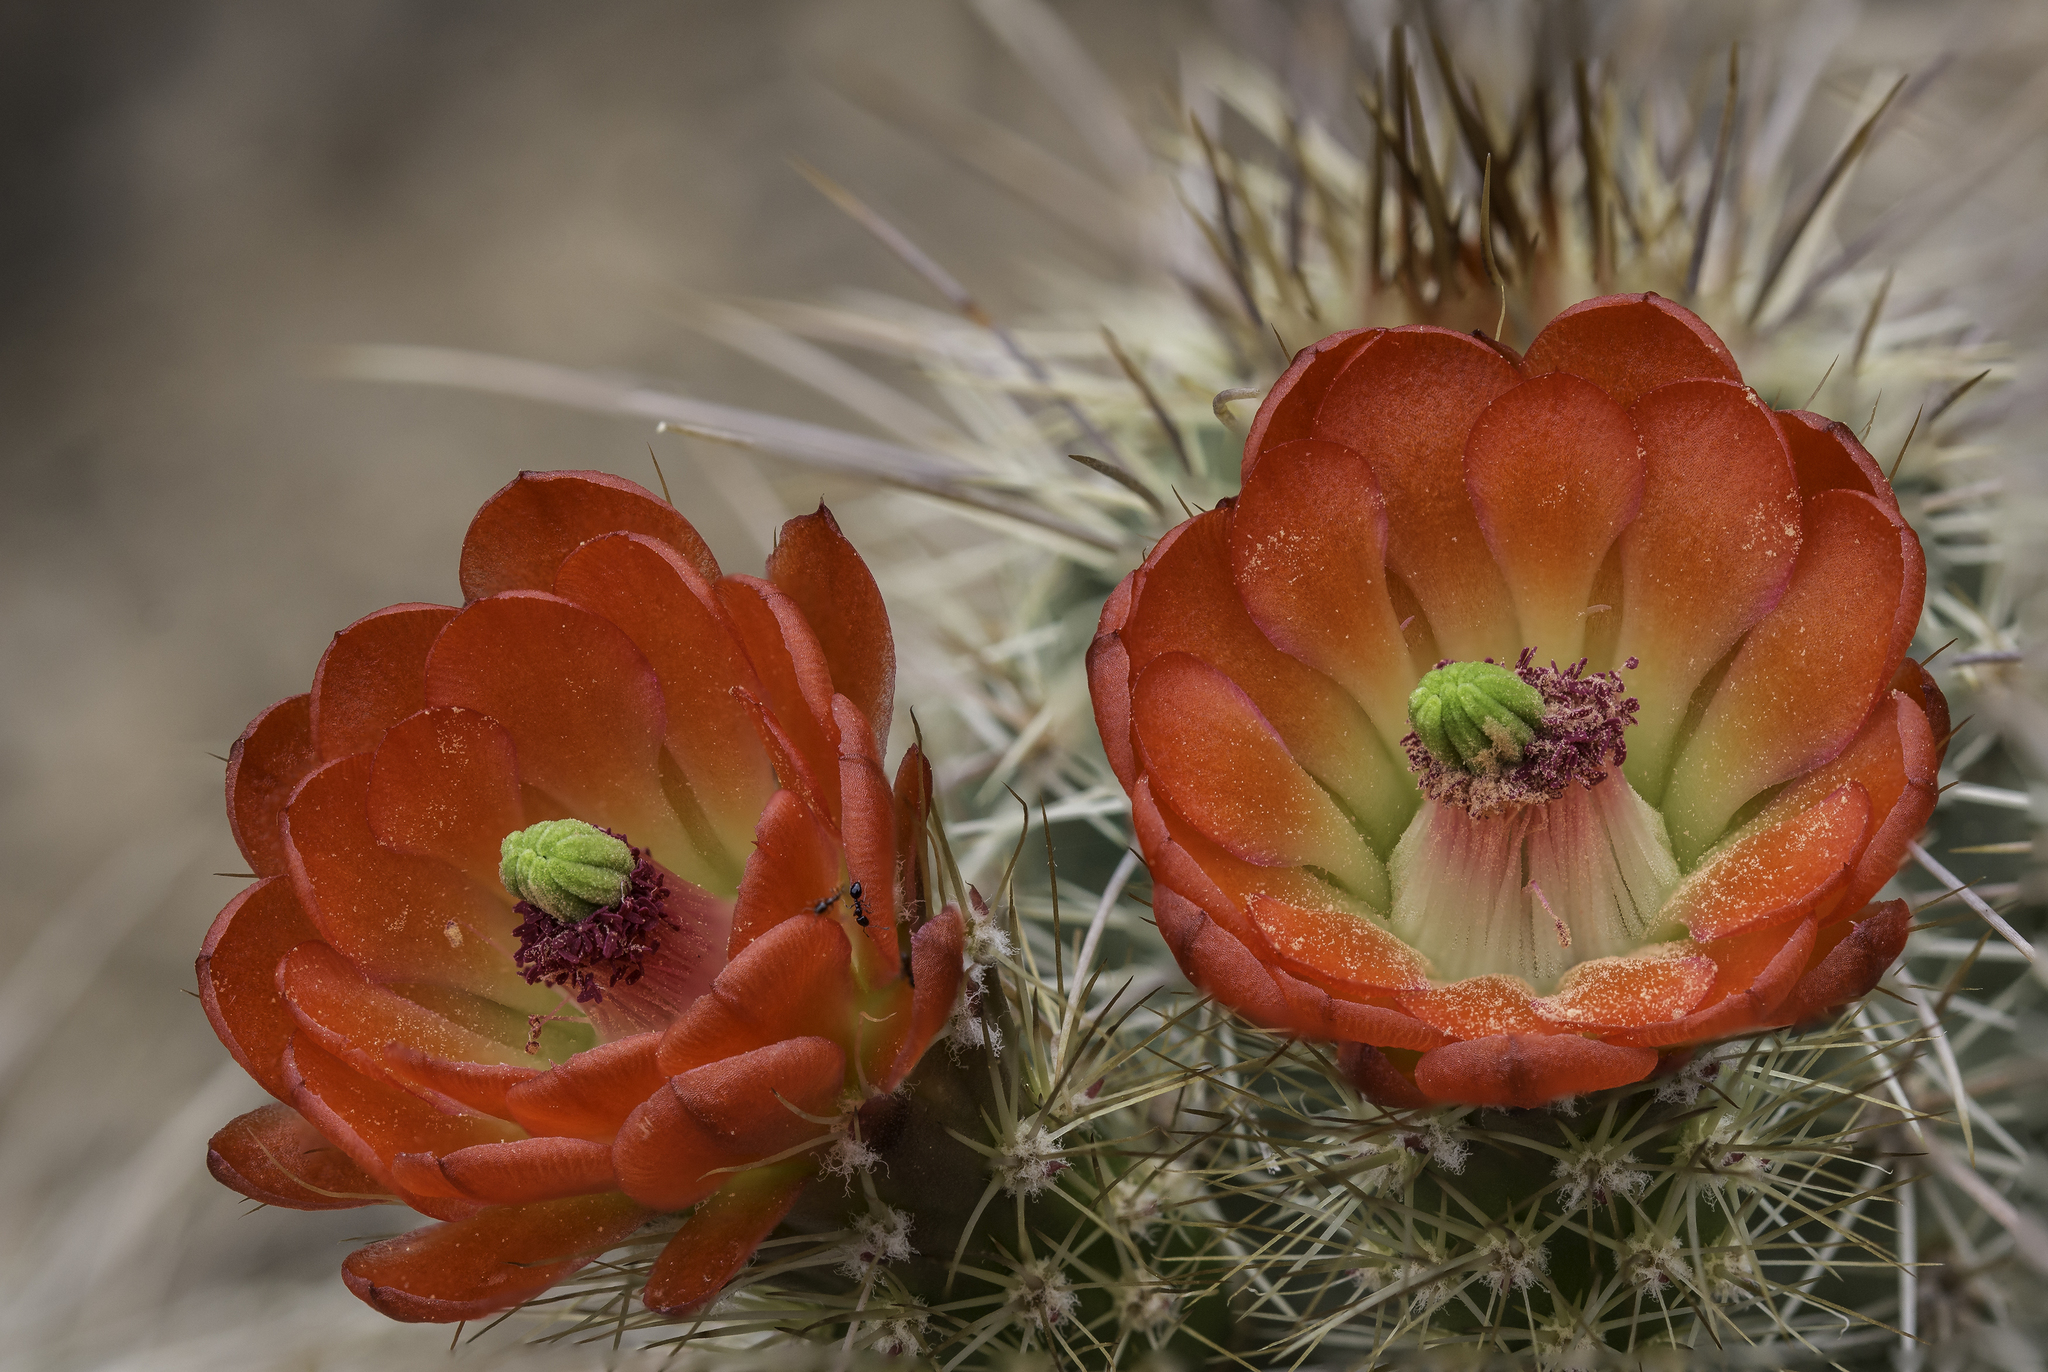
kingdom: Plantae
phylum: Tracheophyta
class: Magnoliopsida
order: Caryophyllales
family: Cactaceae
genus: Echinocereus
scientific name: Echinocereus coccineus
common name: Scarlet hedgehog cactus
